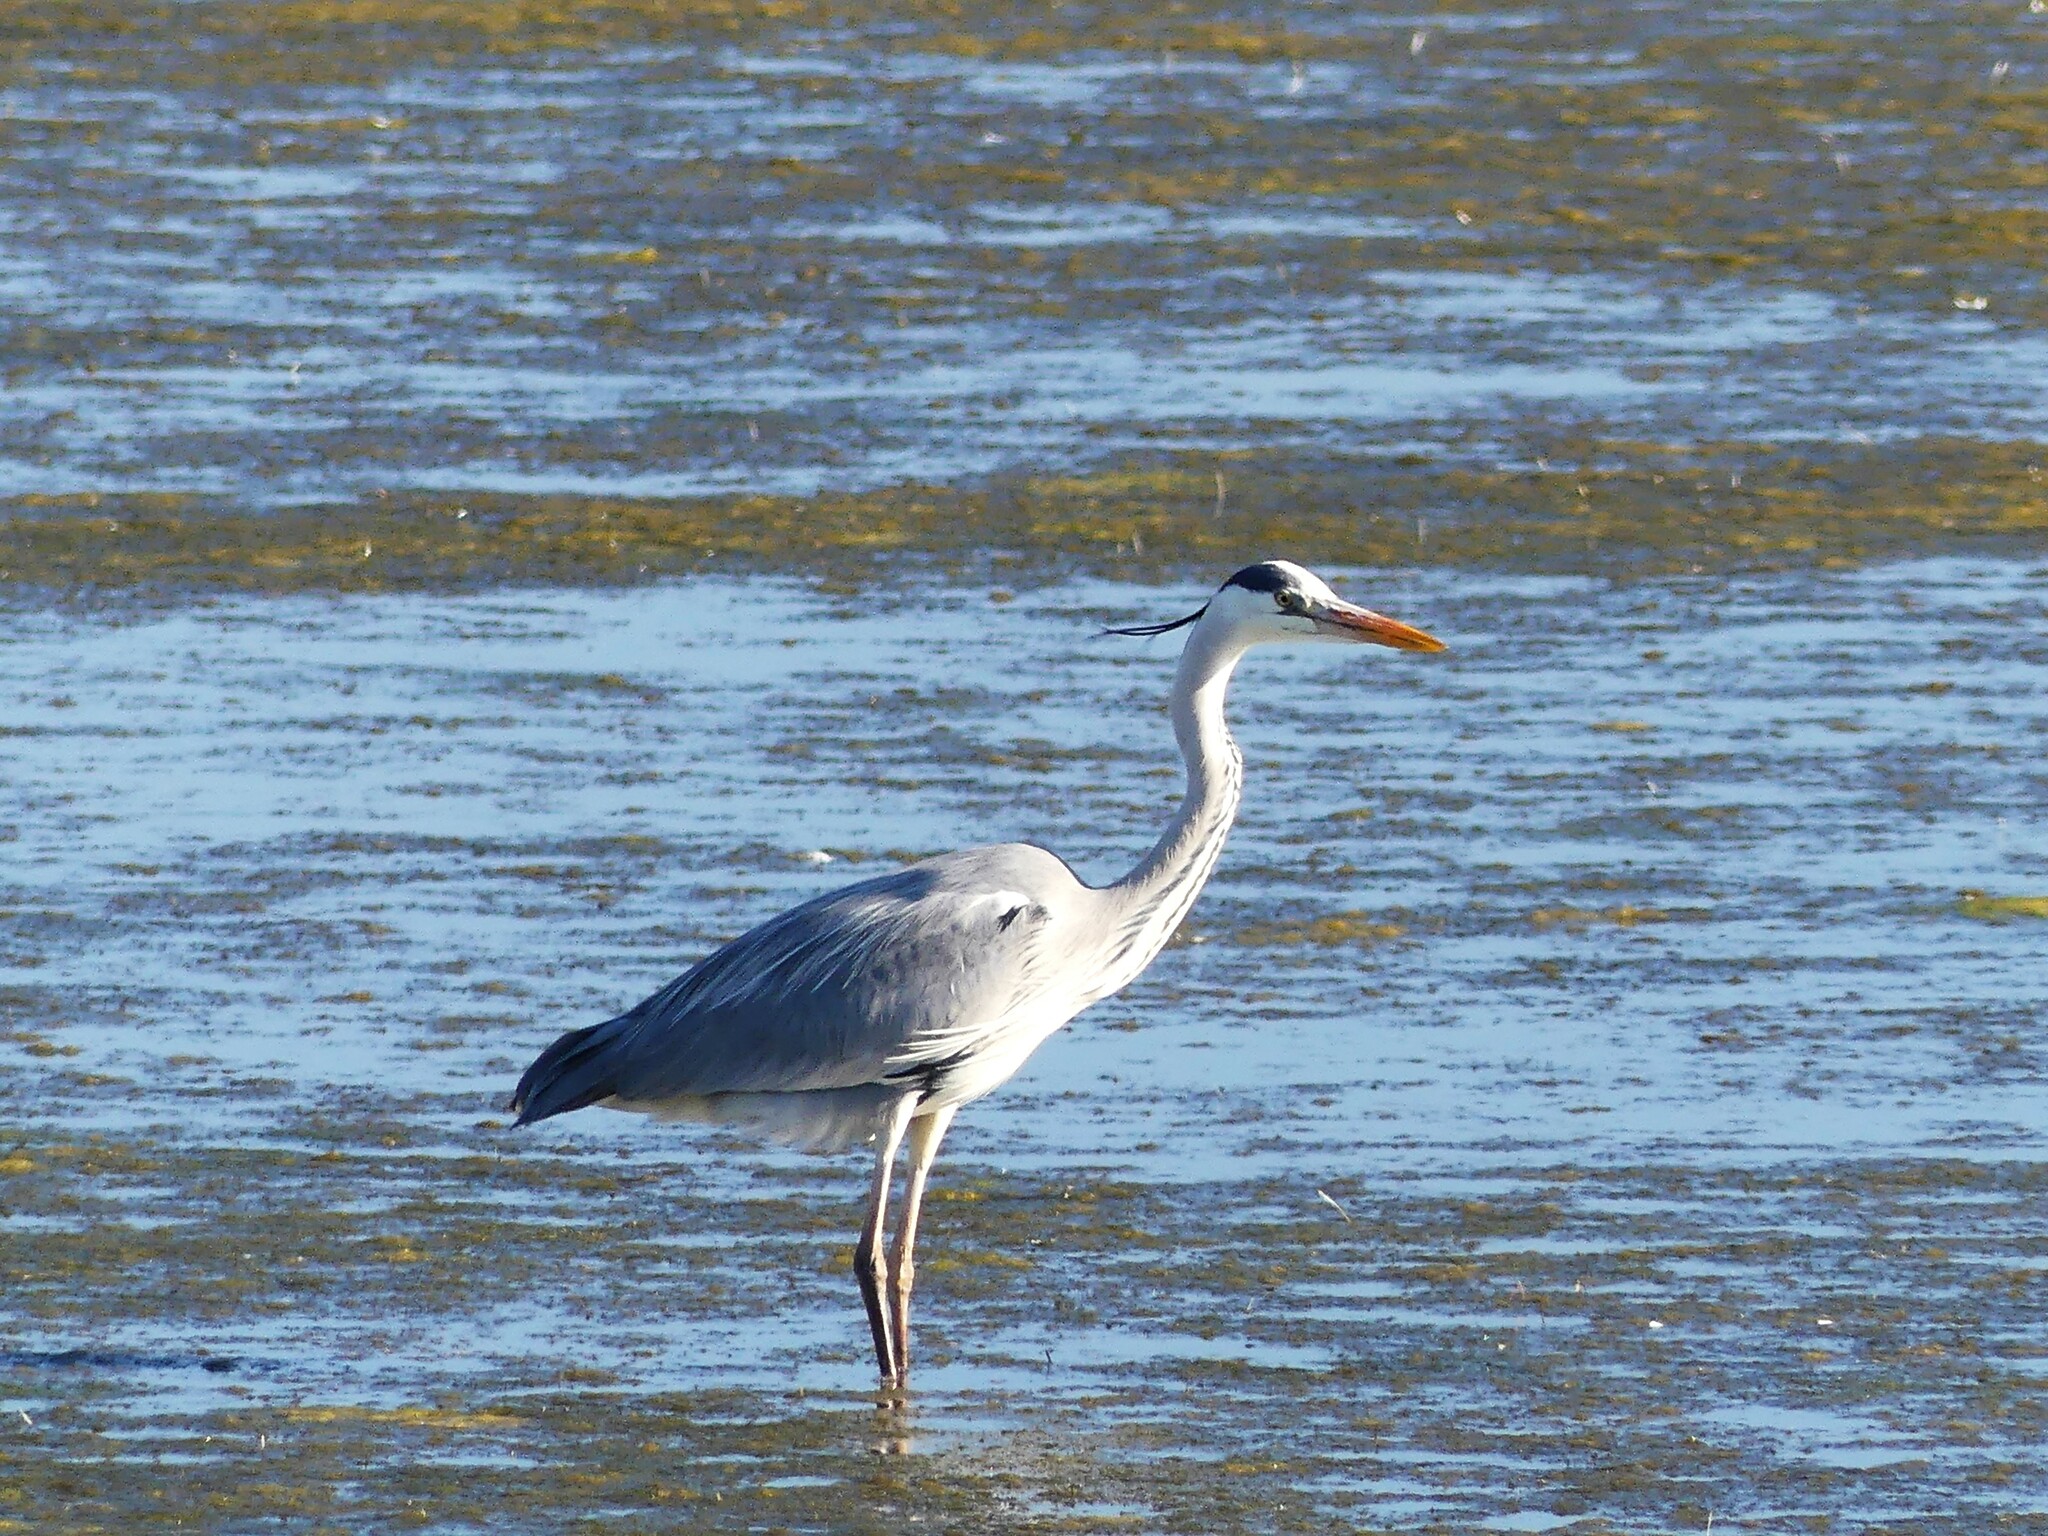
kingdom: Animalia
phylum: Chordata
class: Aves
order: Pelecaniformes
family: Ardeidae
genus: Ardea
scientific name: Ardea cinerea
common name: Grey heron
